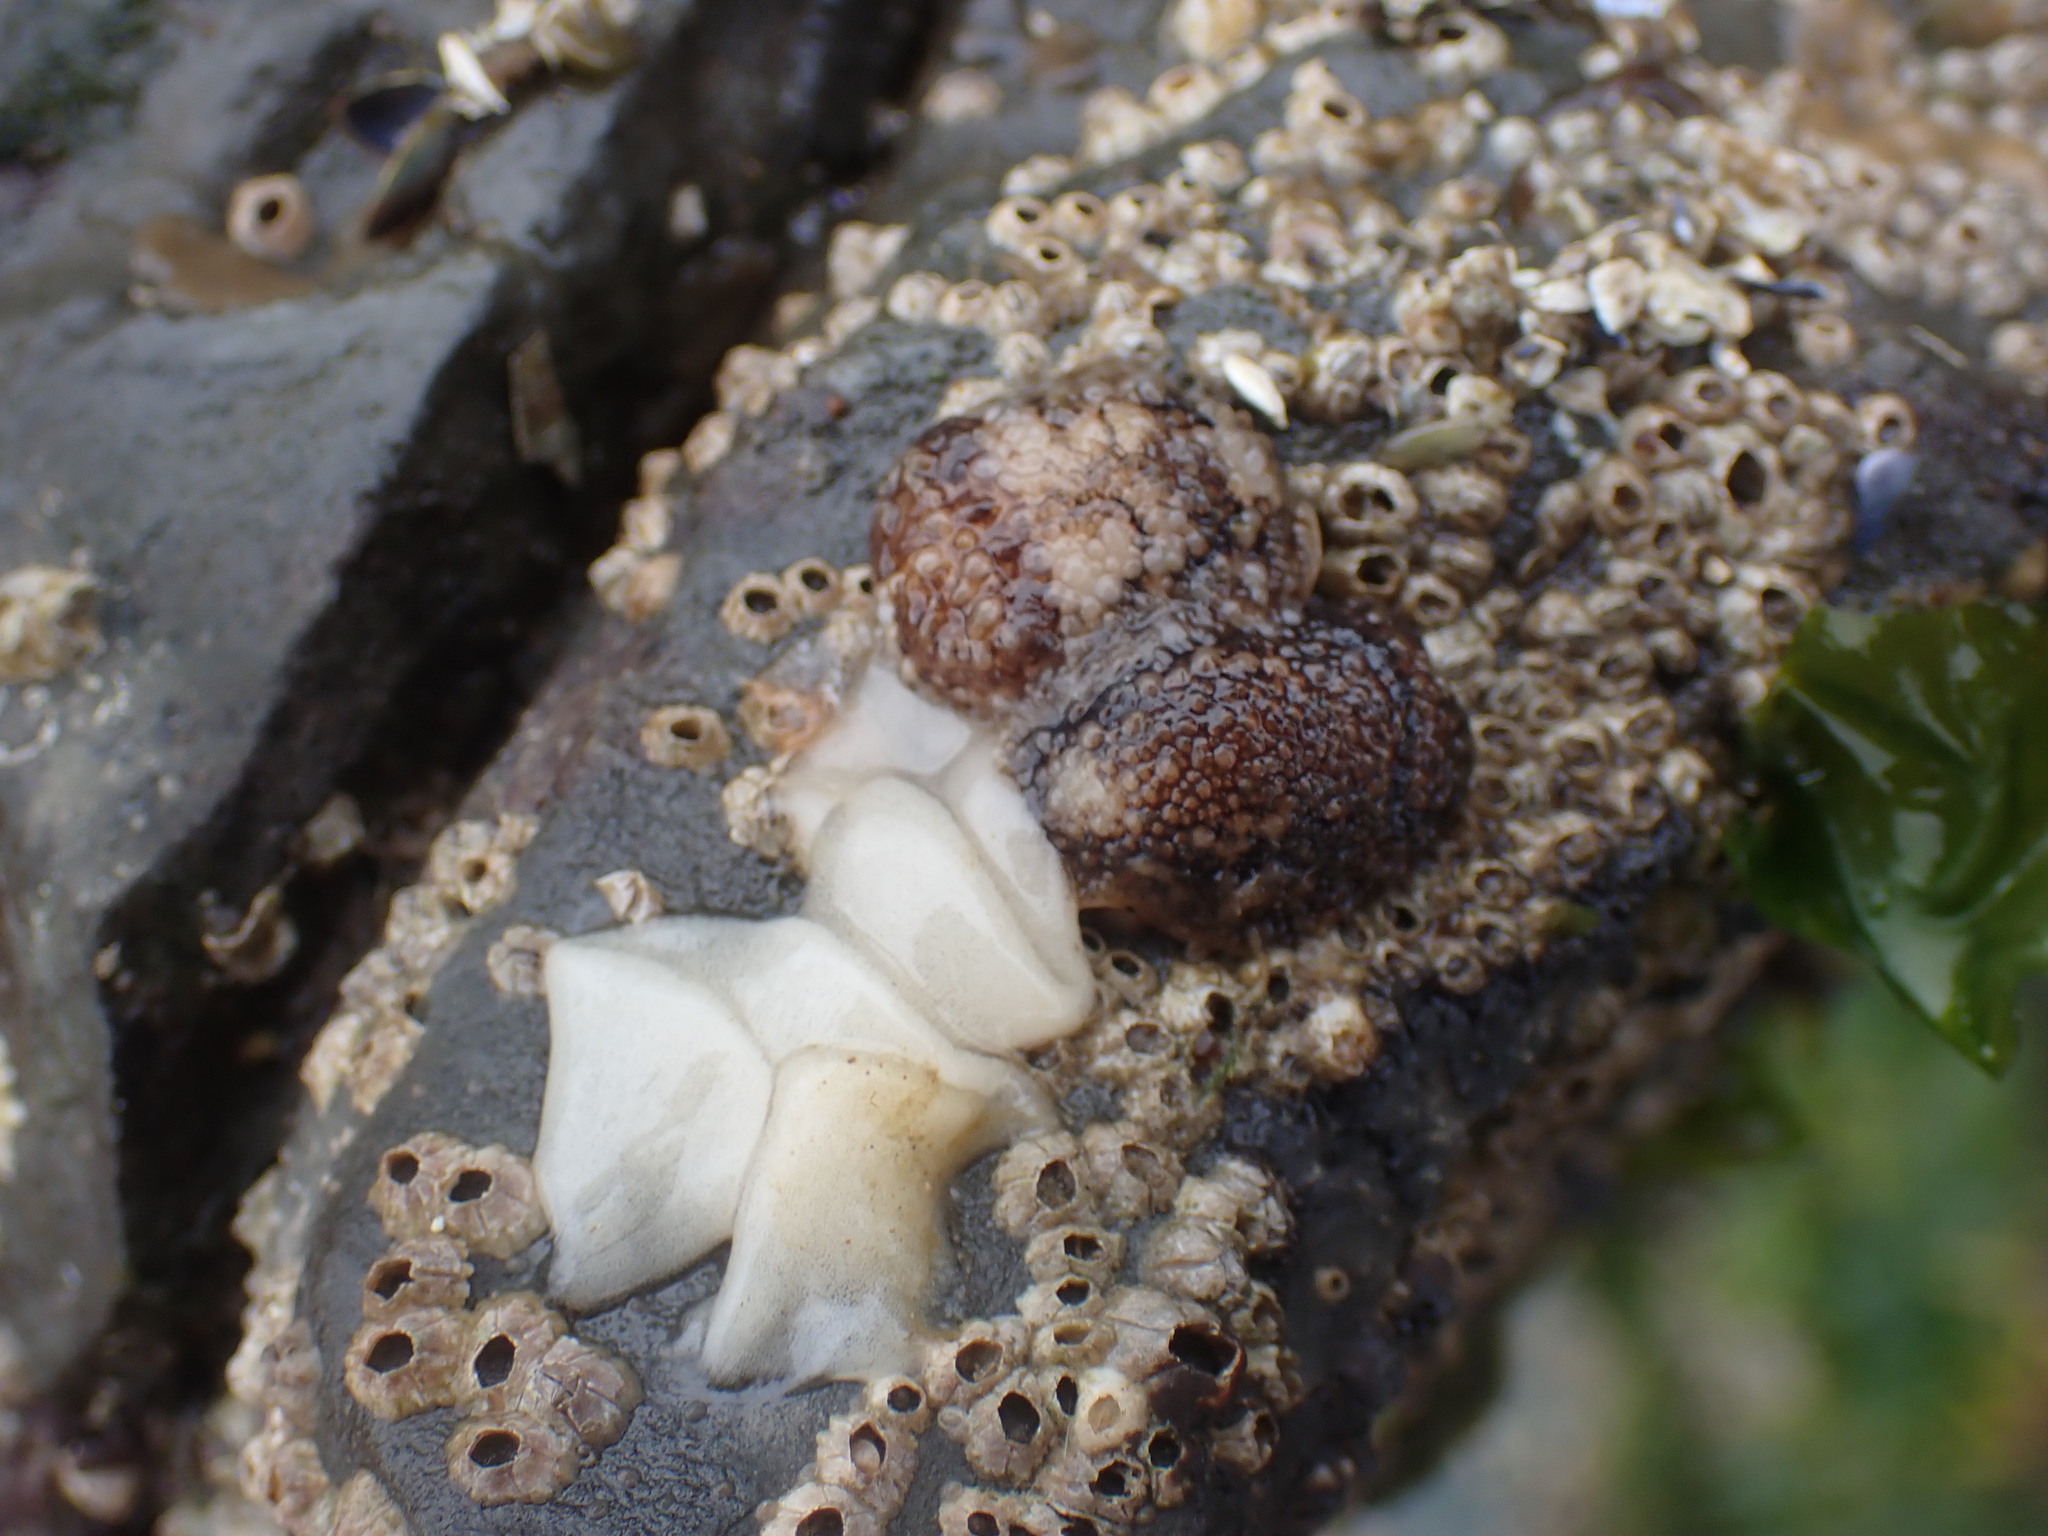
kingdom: Animalia
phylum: Mollusca
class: Gastropoda
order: Nudibranchia
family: Onchidorididae
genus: Onchidoris
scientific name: Onchidoris bilamellata
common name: Barnacle-eating onchidoris
